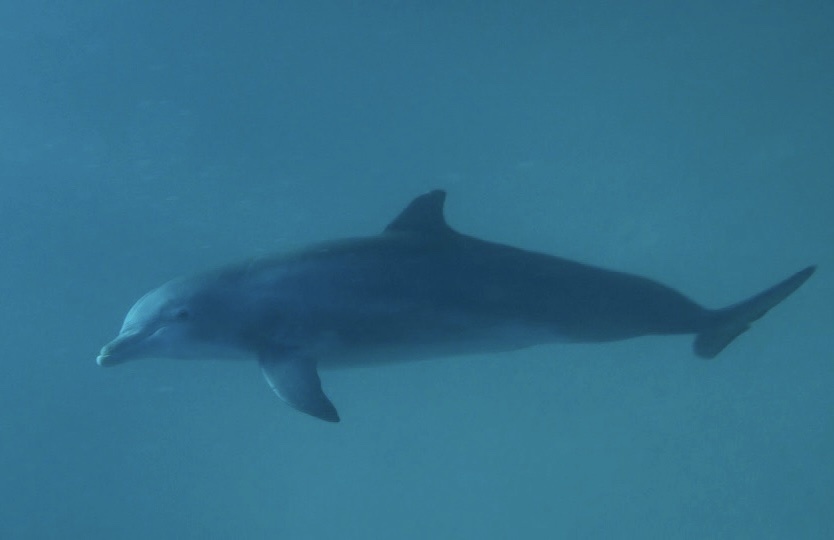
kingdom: Animalia
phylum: Chordata
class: Mammalia
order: Cetacea
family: Delphinidae
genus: Tursiops
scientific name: Tursiops truncatus
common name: Bottlenose dolphin
